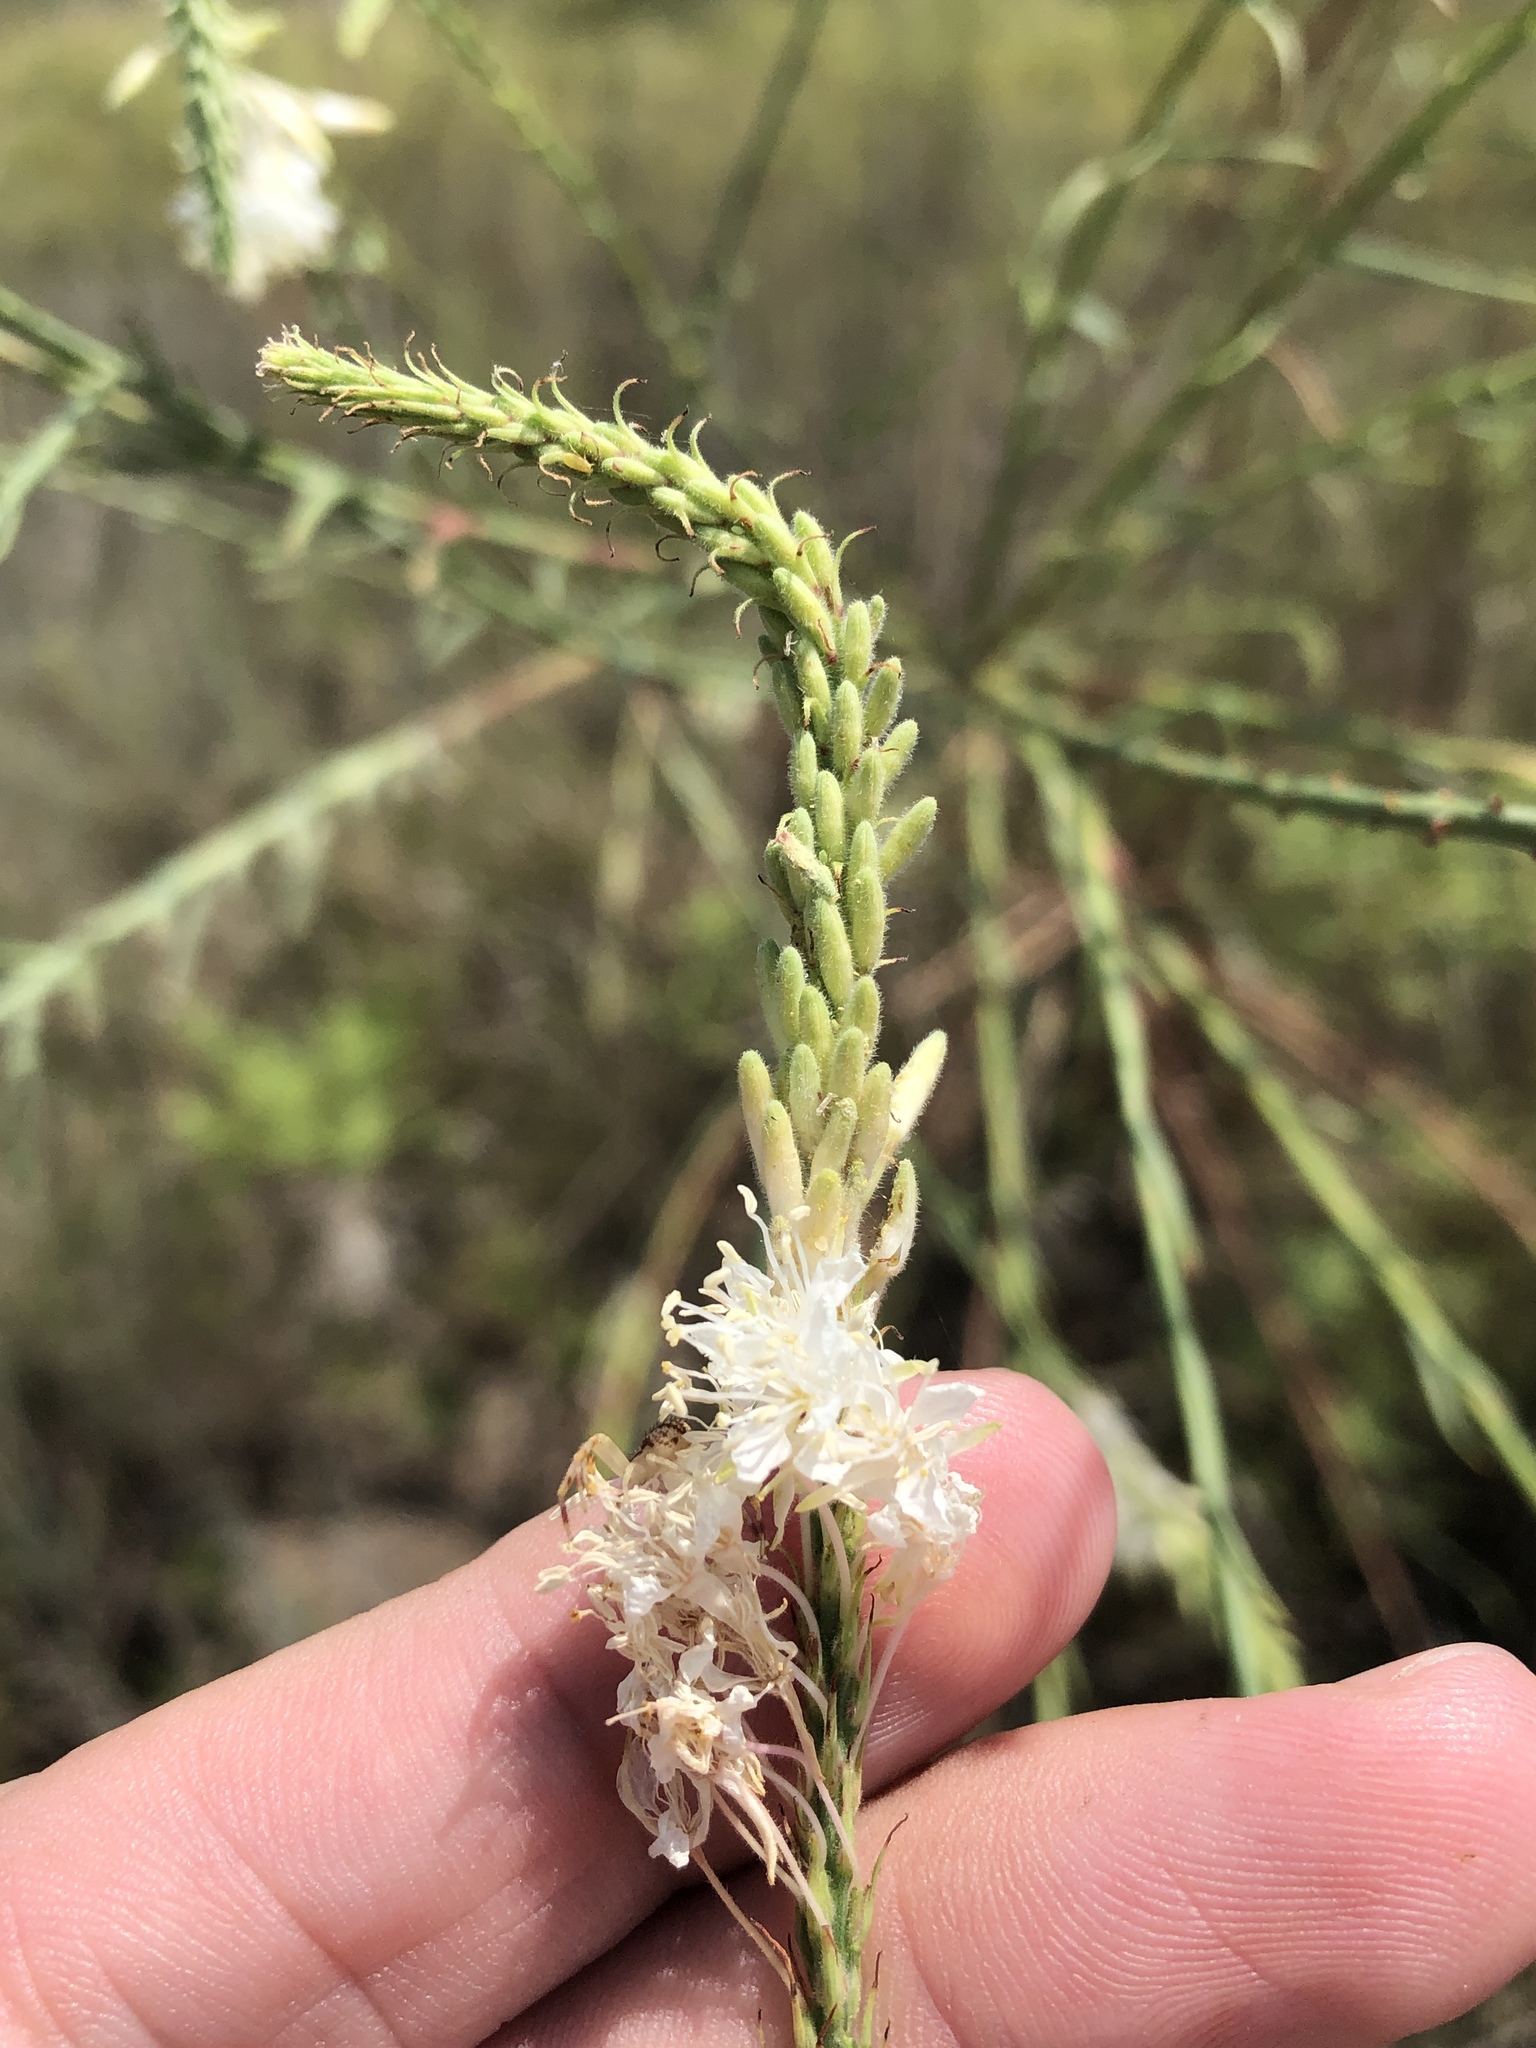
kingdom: Plantae
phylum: Tracheophyta
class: Magnoliopsida
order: Myrtales
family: Onagraceae
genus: Oenothera
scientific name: Oenothera glaucifolia
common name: False gaura
